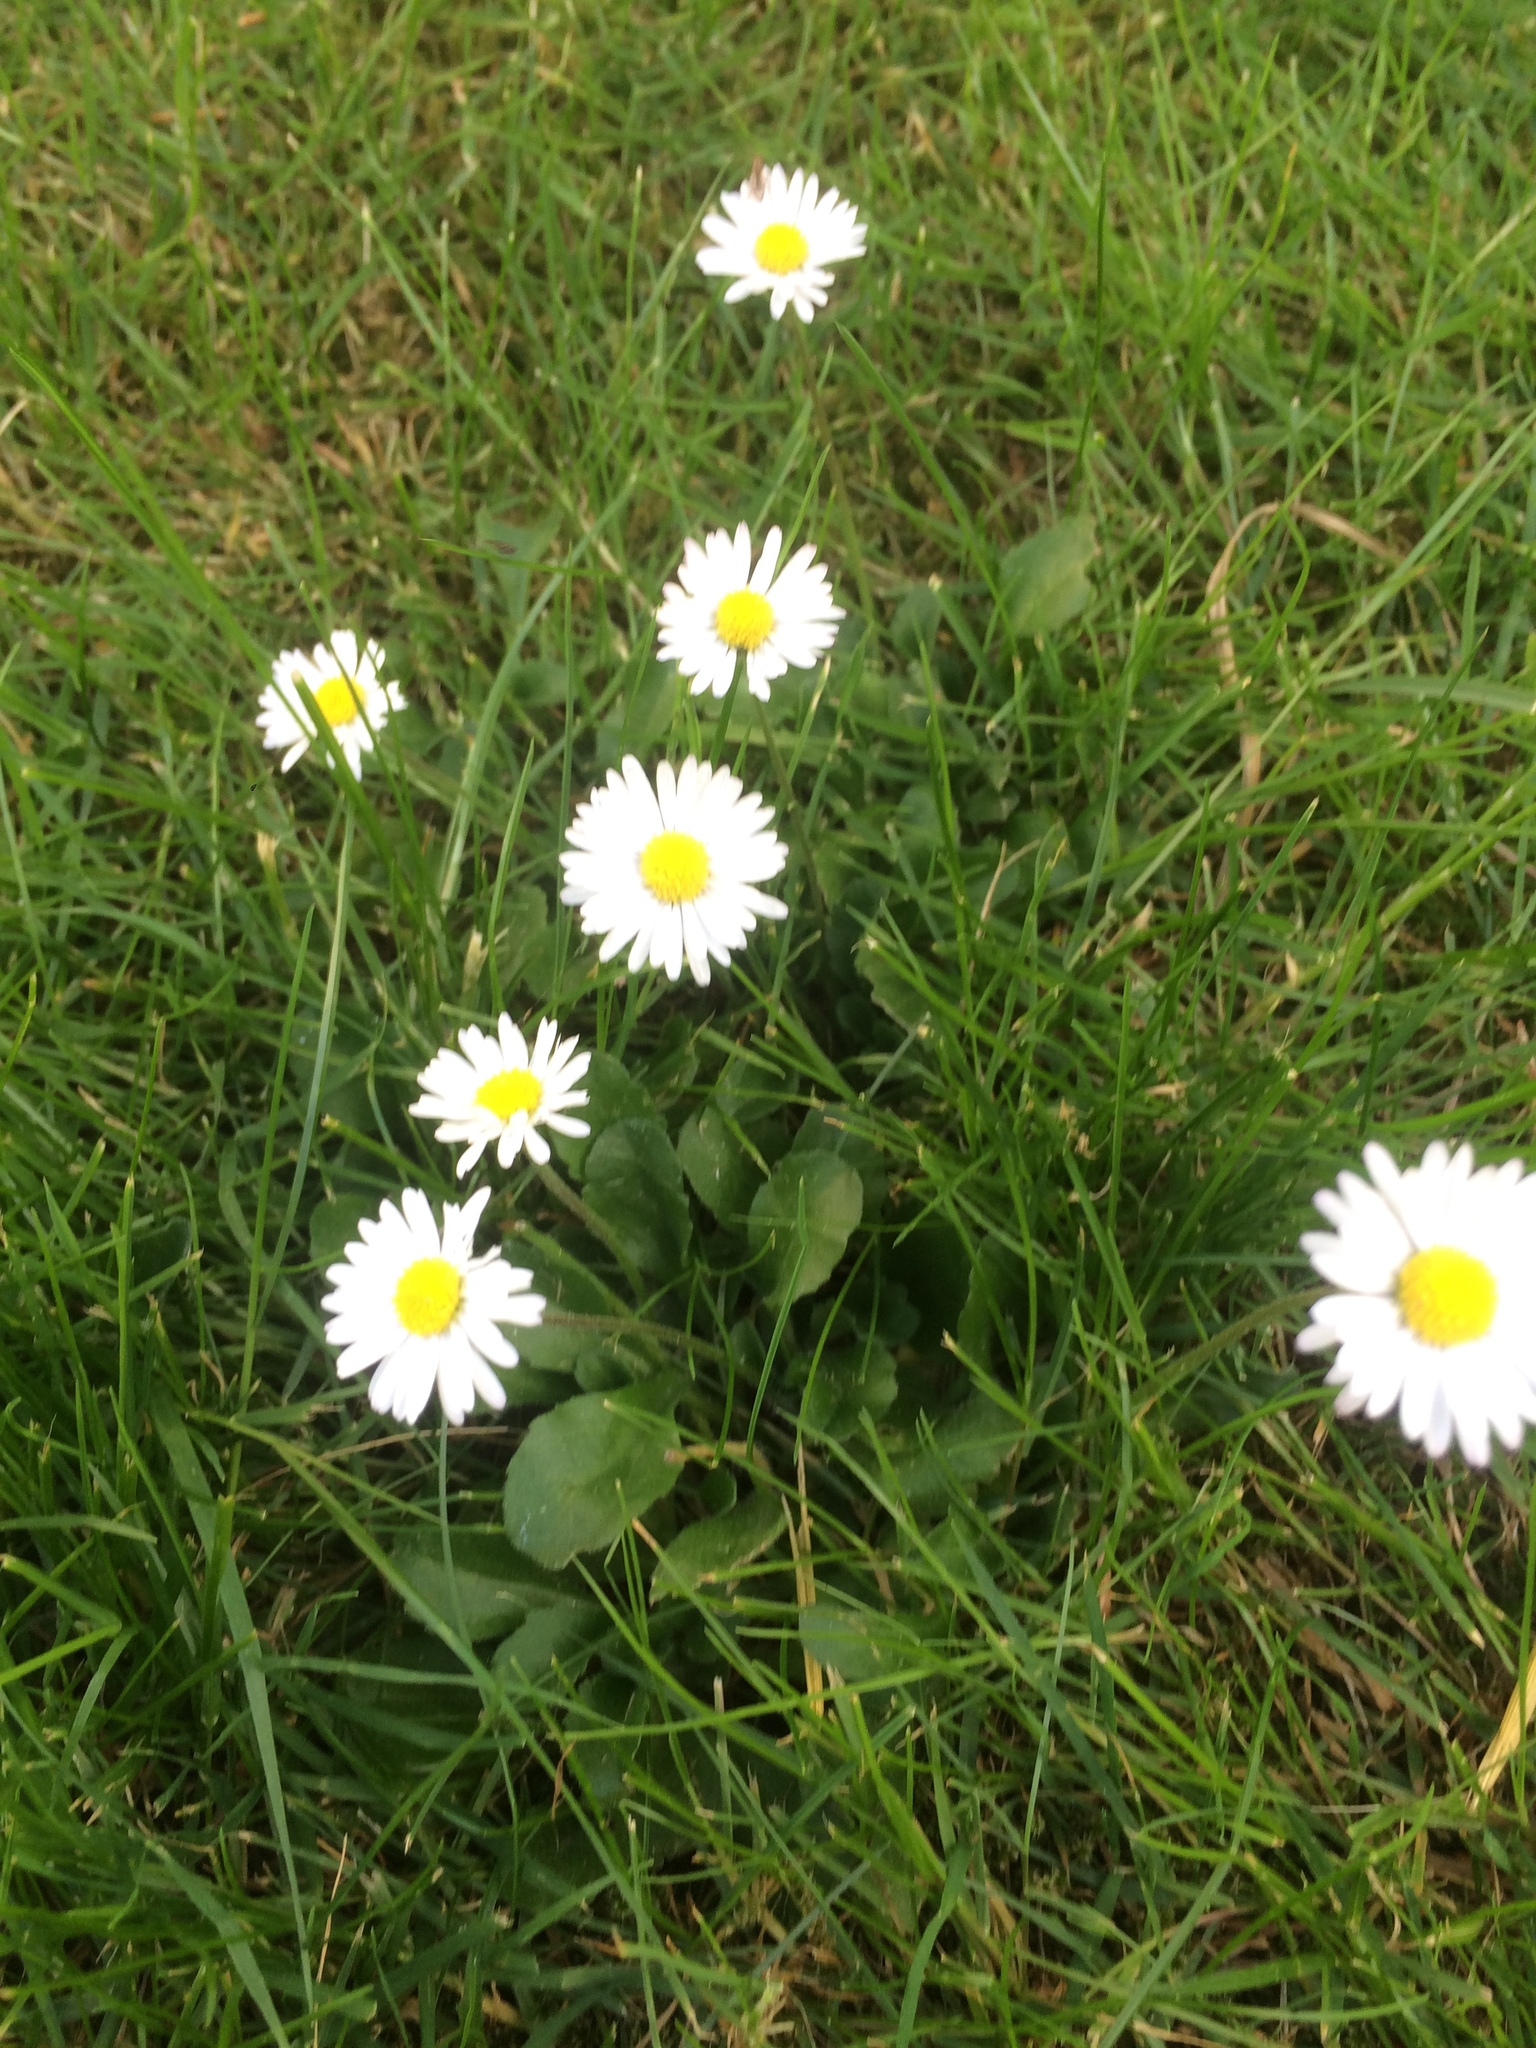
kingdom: Plantae
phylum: Tracheophyta
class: Magnoliopsida
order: Asterales
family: Asteraceae
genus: Bellis
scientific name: Bellis perennis
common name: Lawndaisy
